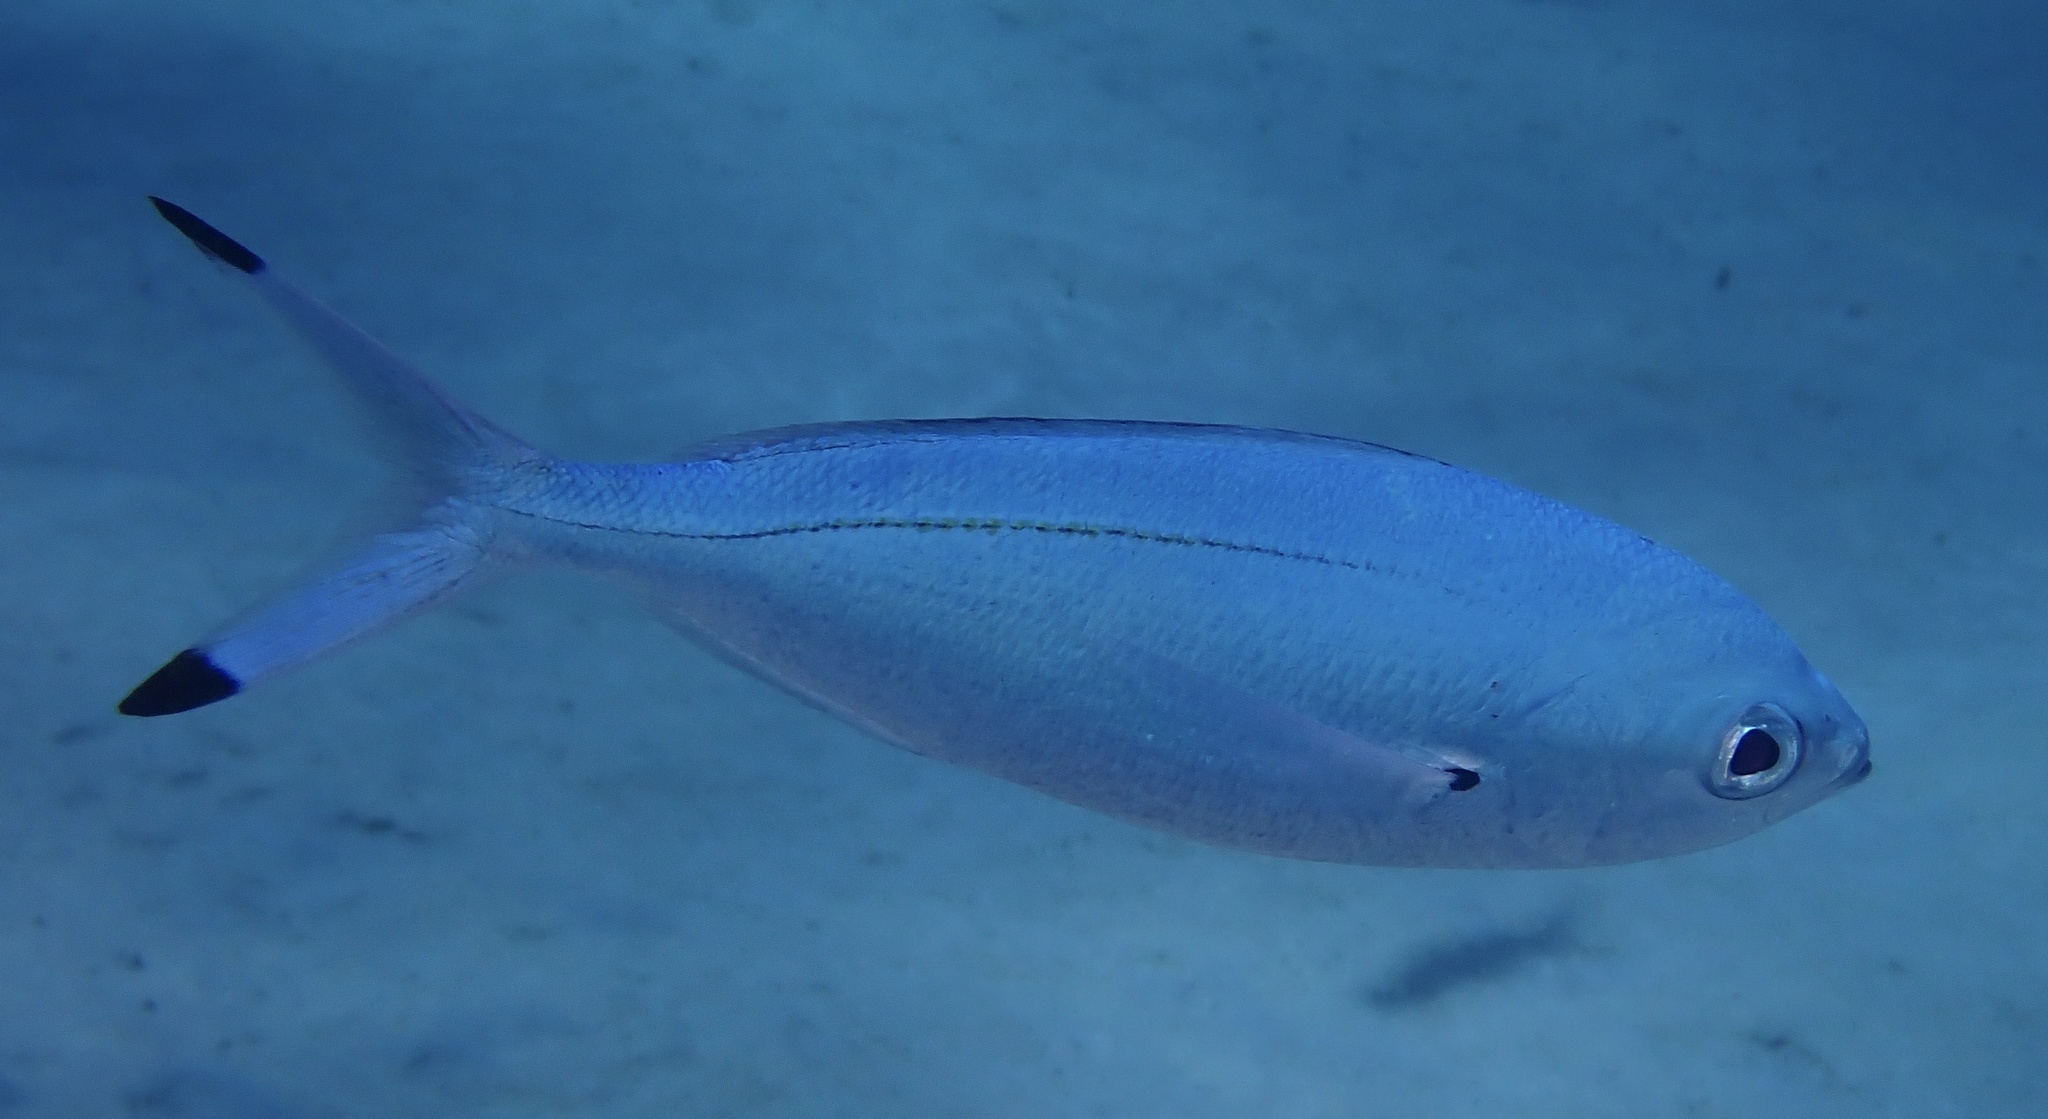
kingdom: Animalia
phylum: Chordata
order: Perciformes
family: Caesionidae
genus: Caesio
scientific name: Caesio lunaris
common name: Blue fusilier
